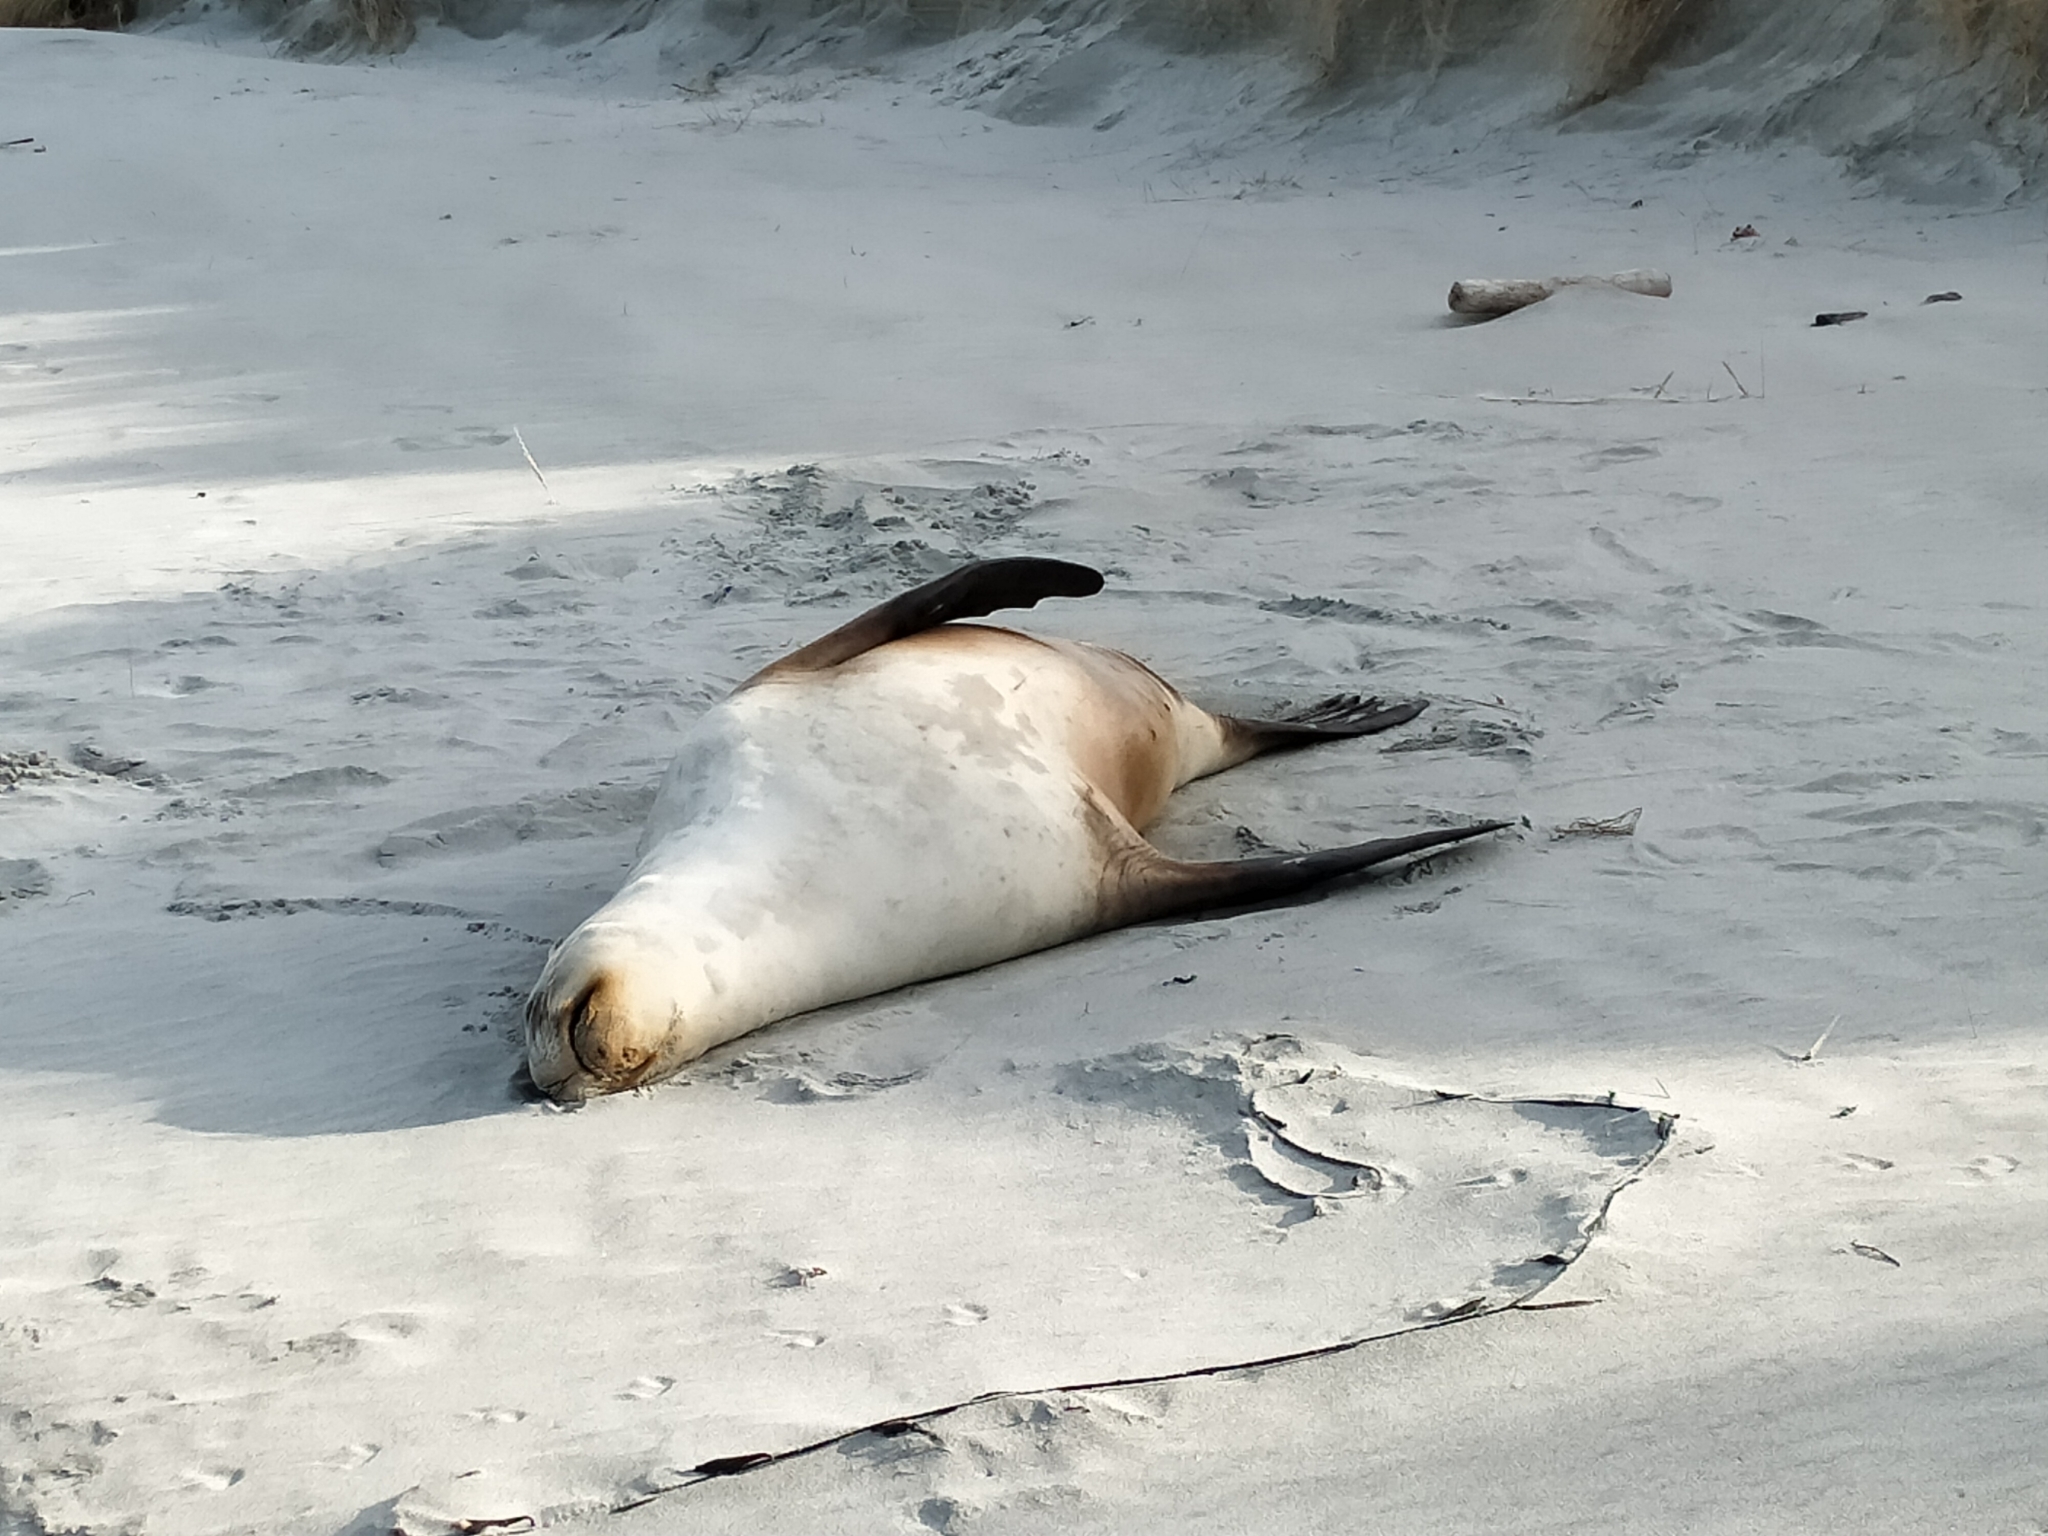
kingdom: Animalia
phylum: Chordata
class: Mammalia
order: Carnivora
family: Otariidae
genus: Phocarctos
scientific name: Phocarctos hookeri
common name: New zealand sea lion
